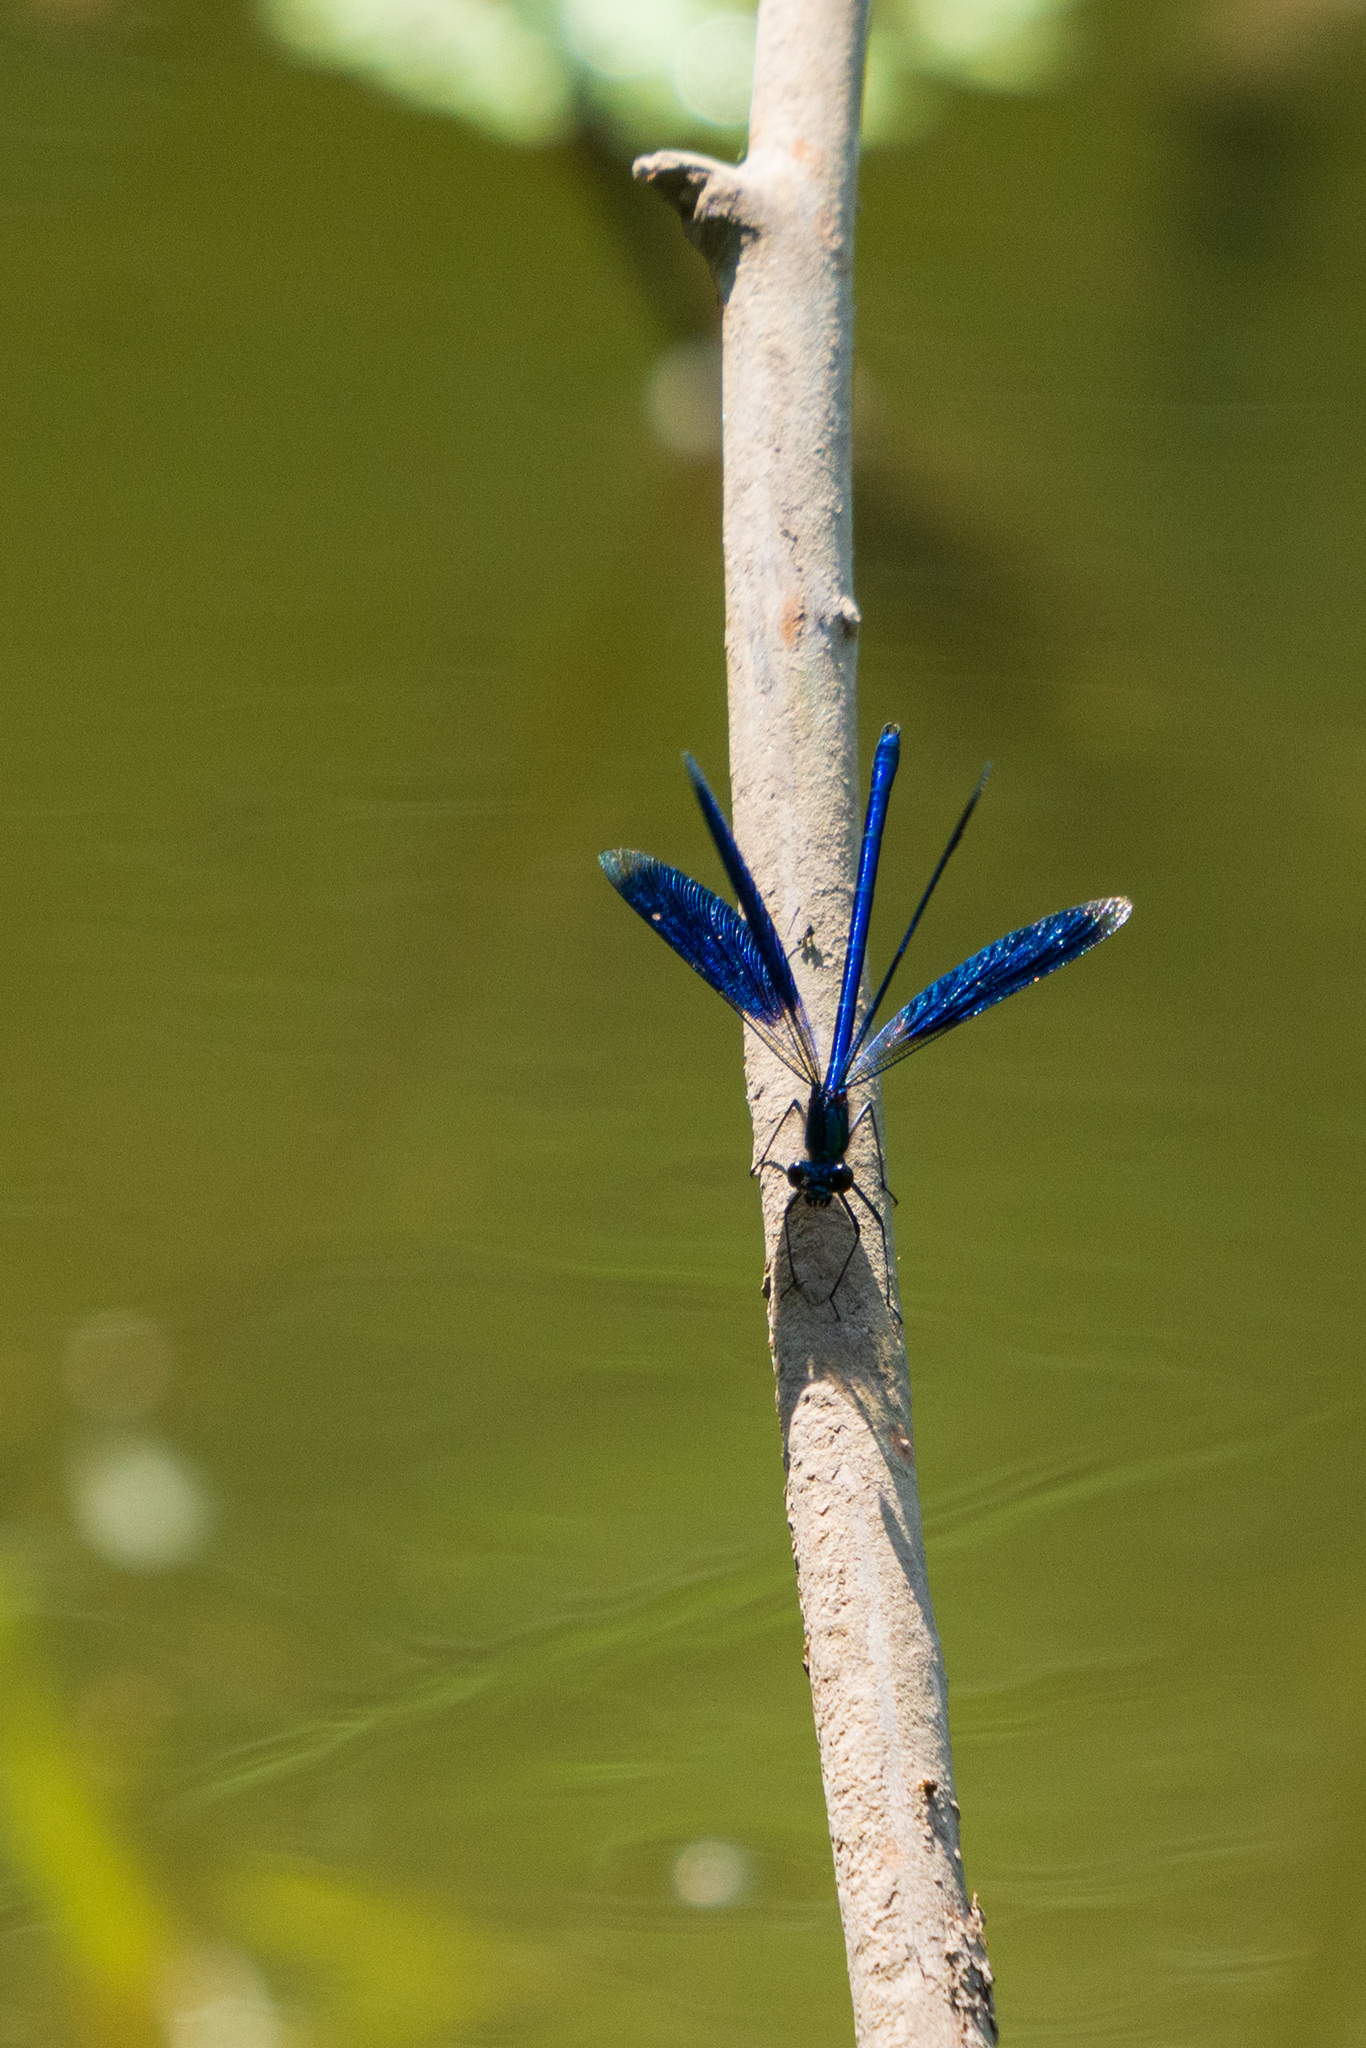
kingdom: Animalia
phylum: Arthropoda
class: Insecta
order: Odonata
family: Calopterygidae
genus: Calopteryx
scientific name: Calopteryx splendens
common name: Banded demoiselle
